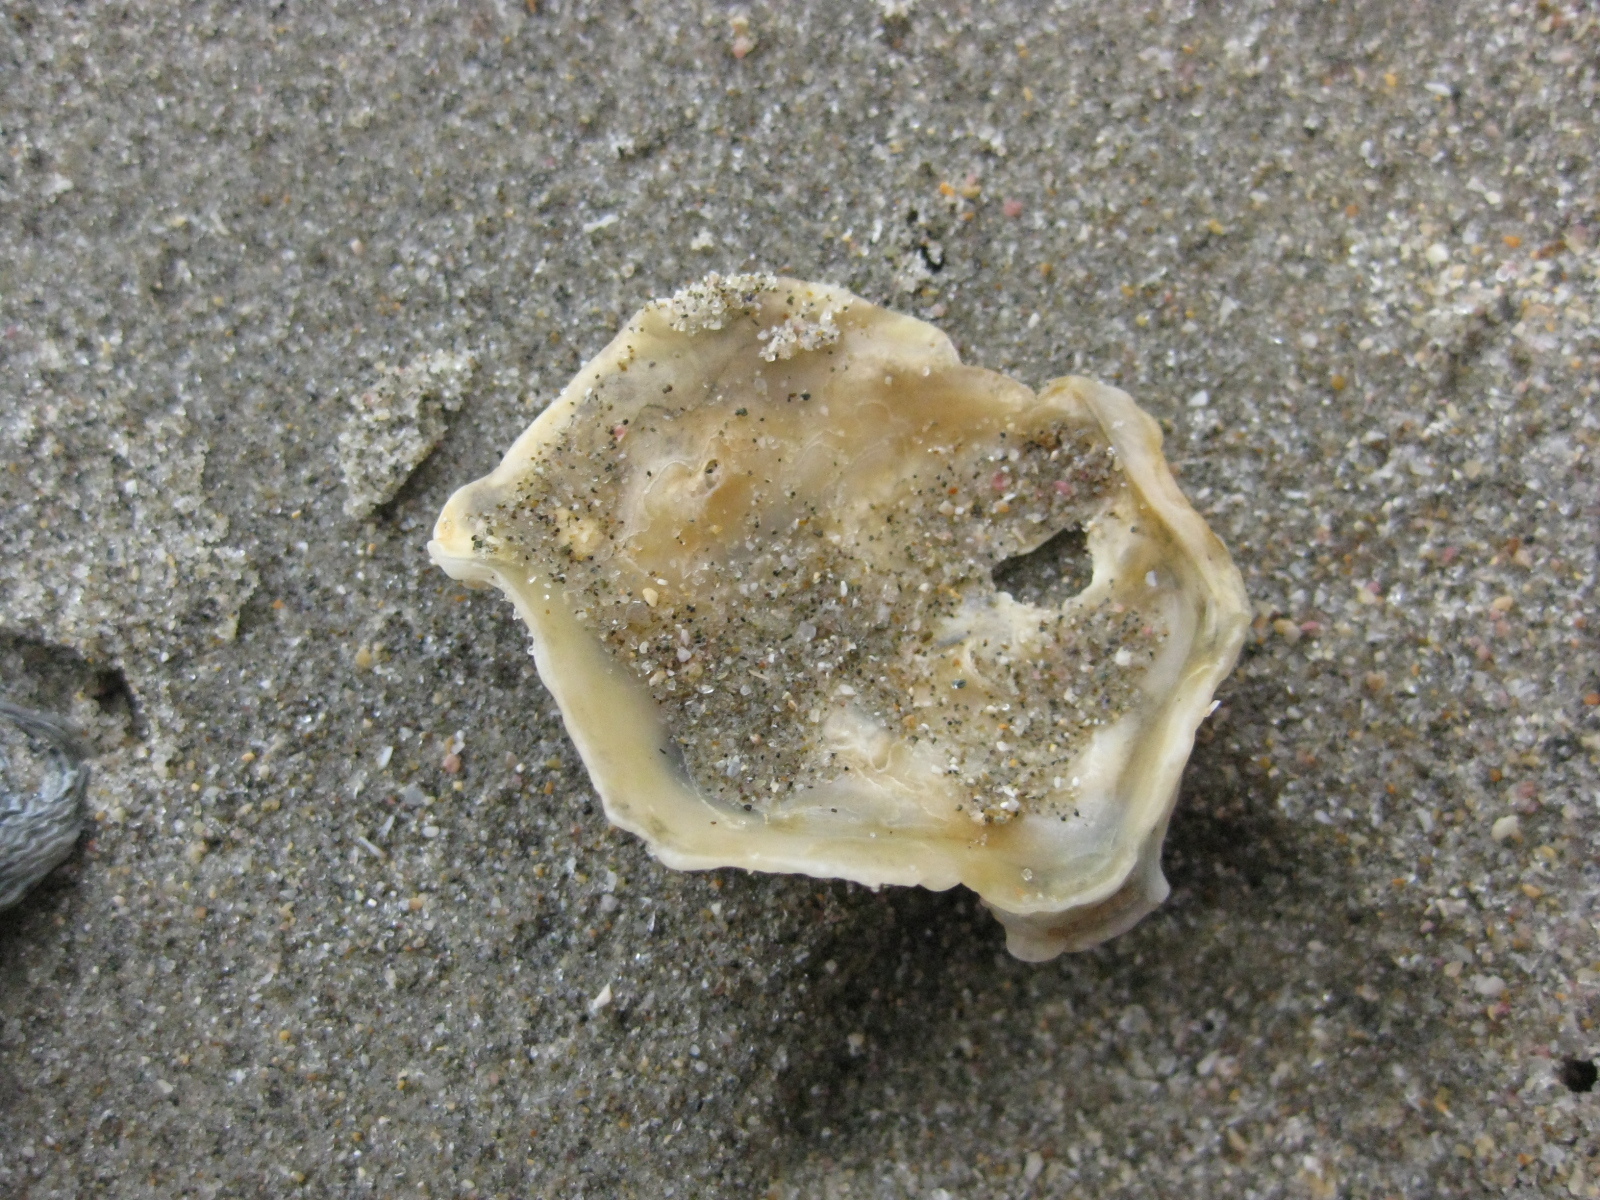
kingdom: Animalia
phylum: Mollusca
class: Bivalvia
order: Ostreida
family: Ostreidae
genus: Ostrea
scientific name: Ostrea chilensis
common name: Chilean oyster
